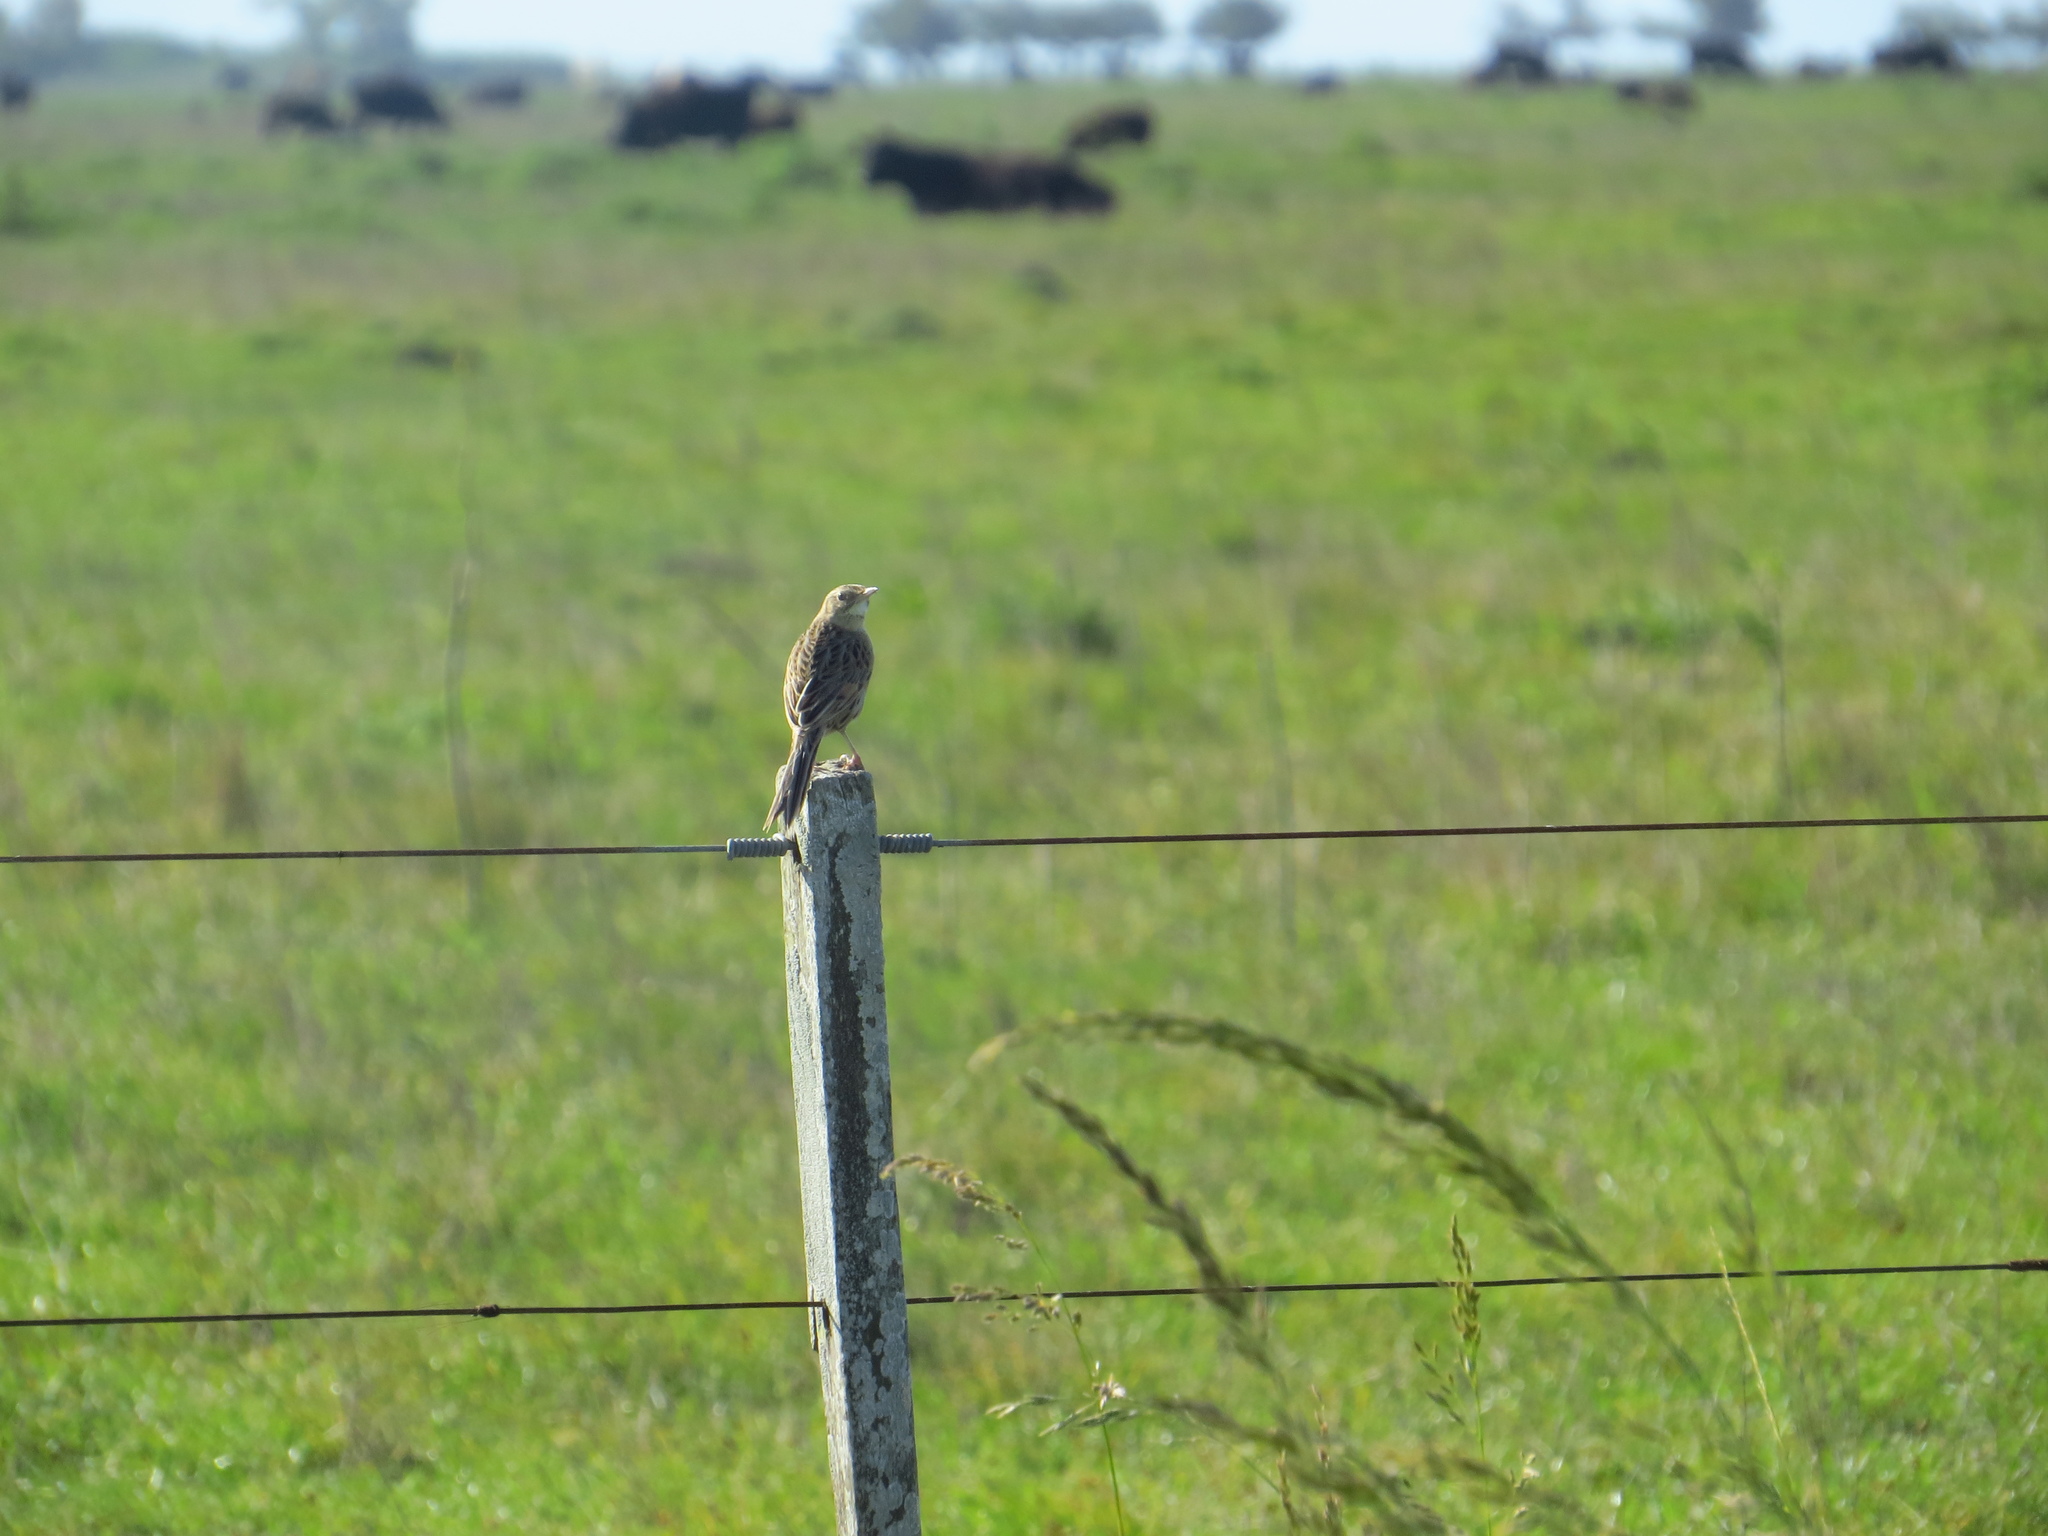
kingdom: Animalia
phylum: Chordata
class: Aves
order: Passeriformes
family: Furnariidae
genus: Asthenes
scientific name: Asthenes hudsoni
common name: Hudson's canastero
